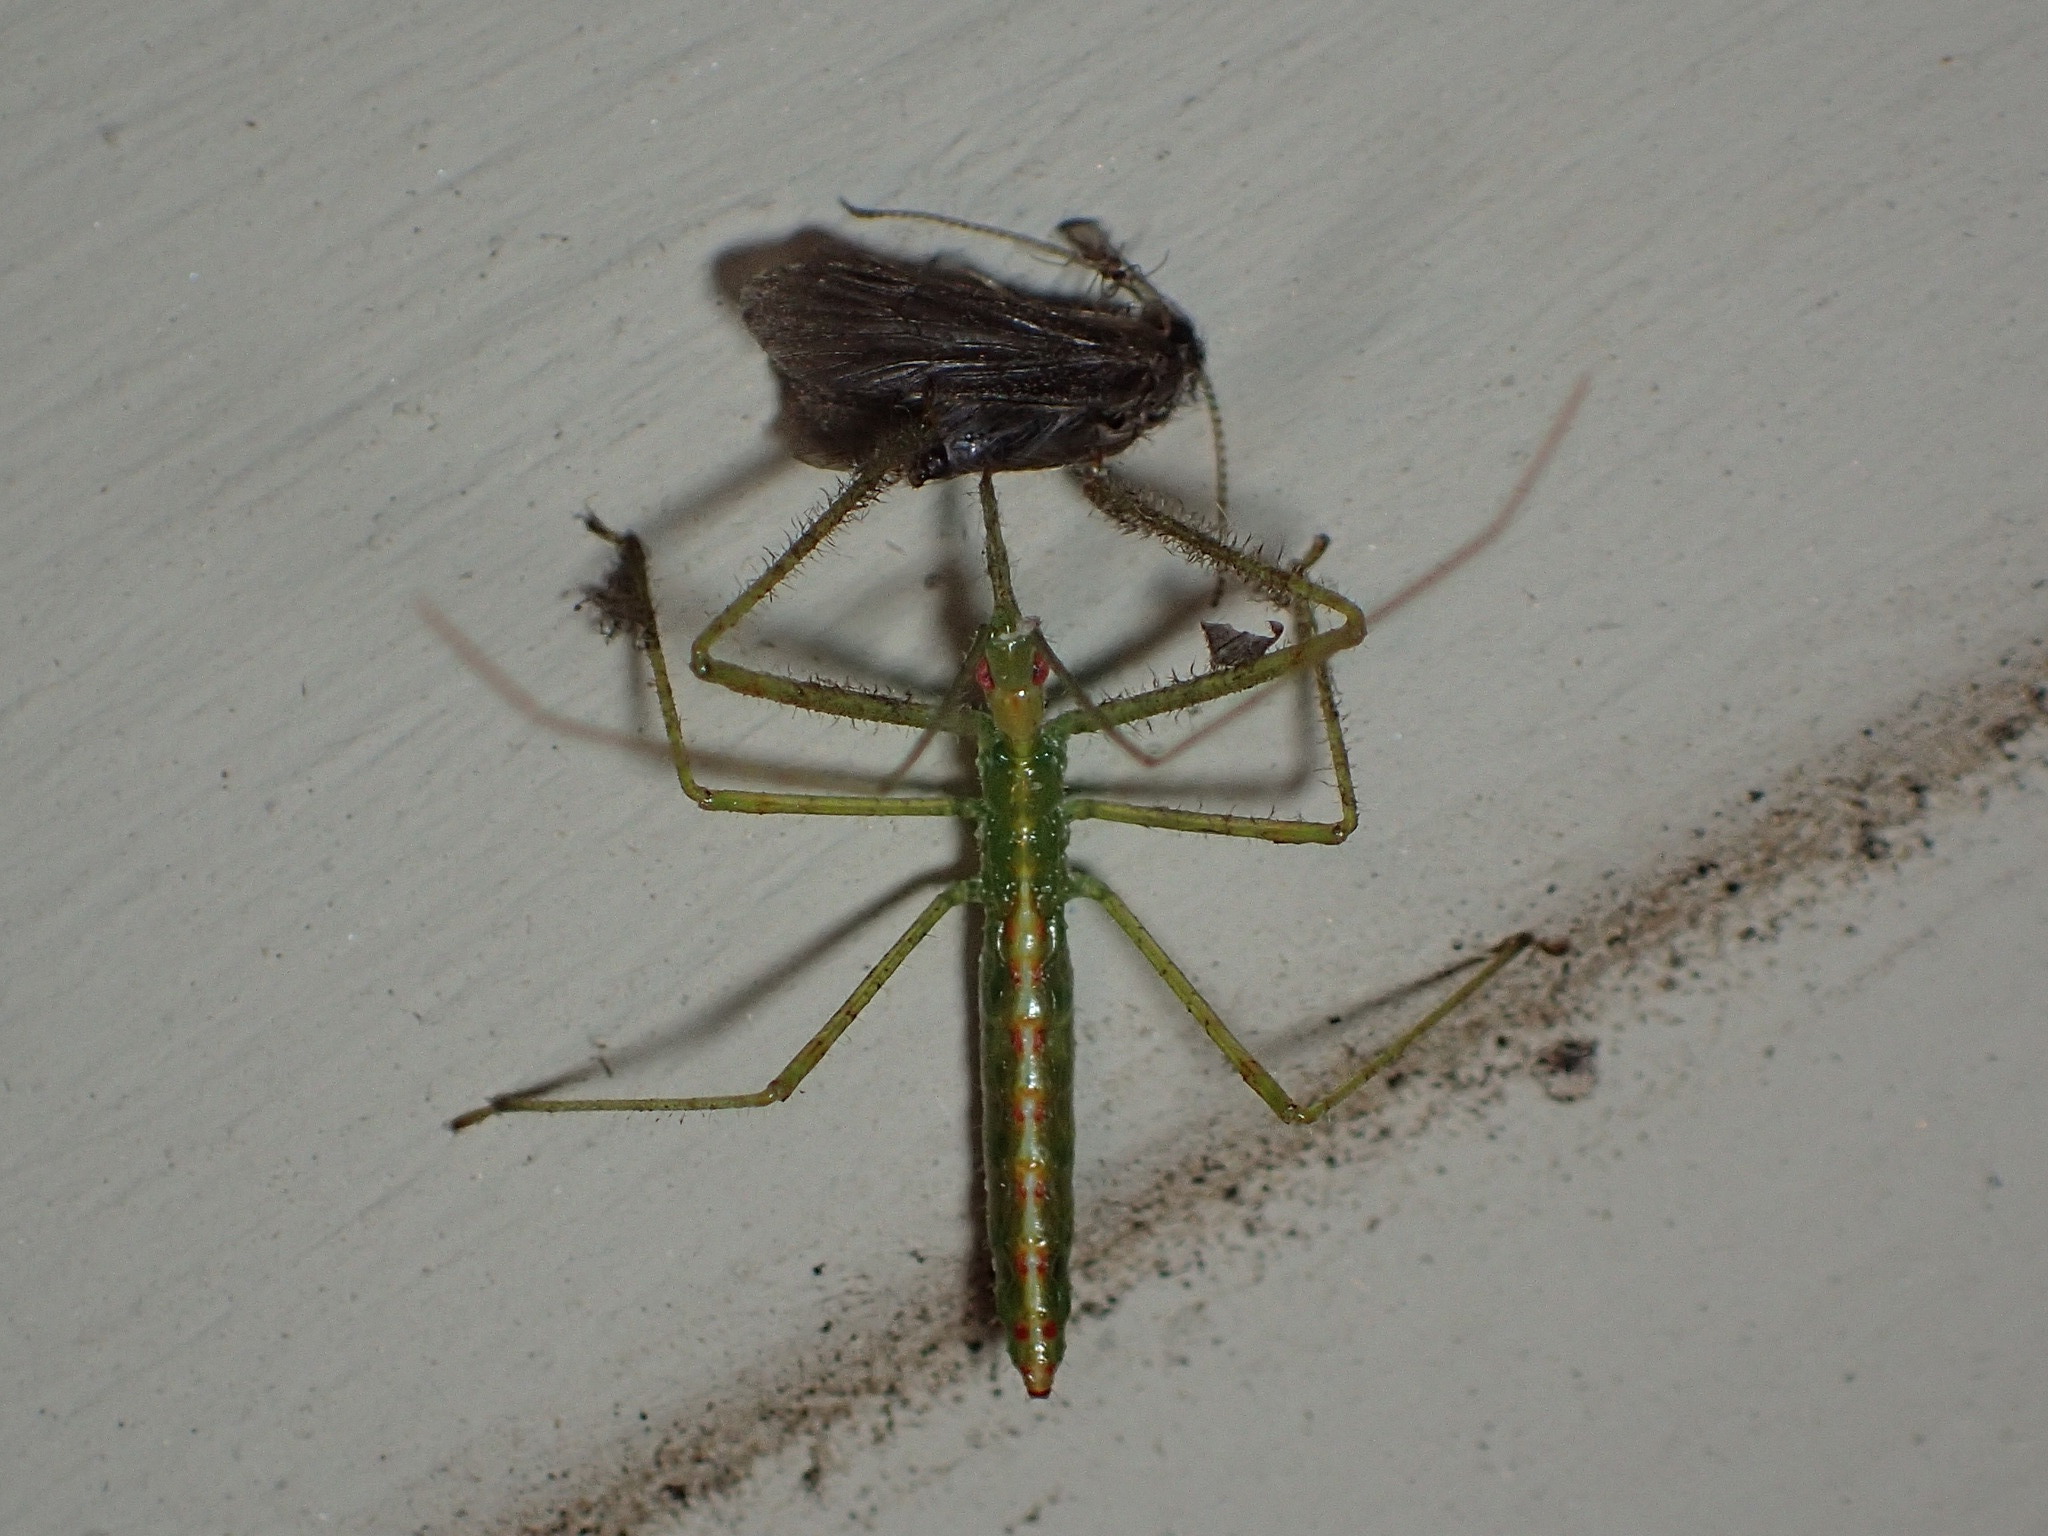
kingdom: Animalia
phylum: Arthropoda
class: Insecta
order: Hemiptera
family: Reduviidae
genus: Zelus
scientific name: Zelus luridus
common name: Pale green assassin bug
